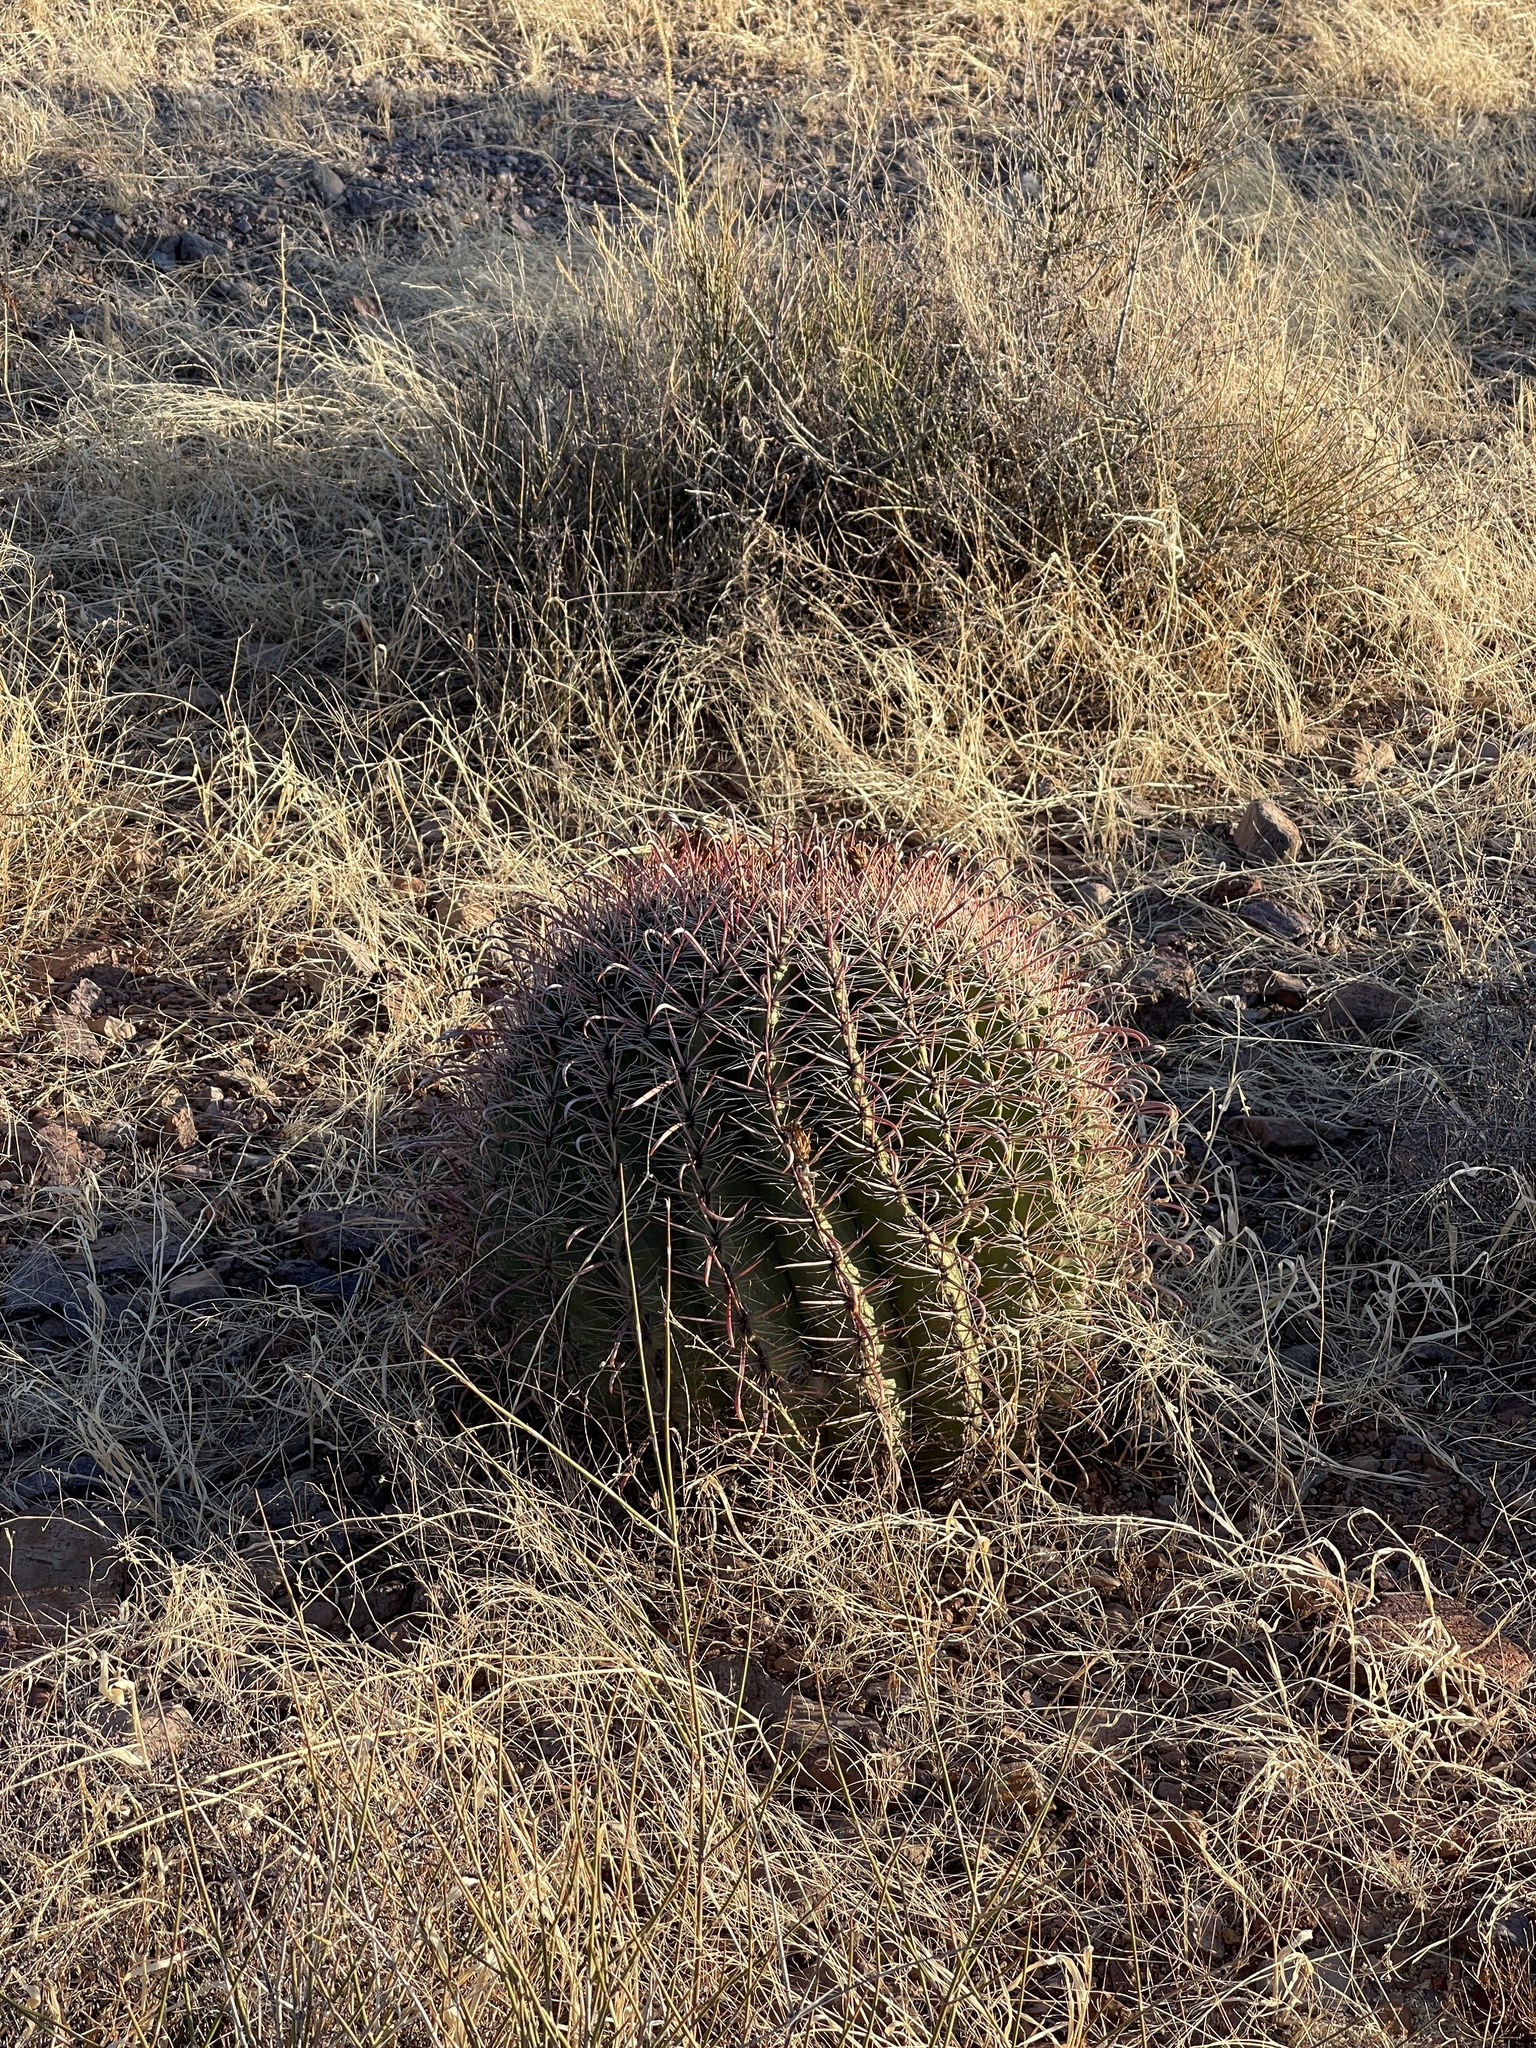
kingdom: Plantae
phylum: Tracheophyta
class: Magnoliopsida
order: Caryophyllales
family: Cactaceae
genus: Ferocactus
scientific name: Ferocactus wislizeni
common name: Candy barrel cactus
